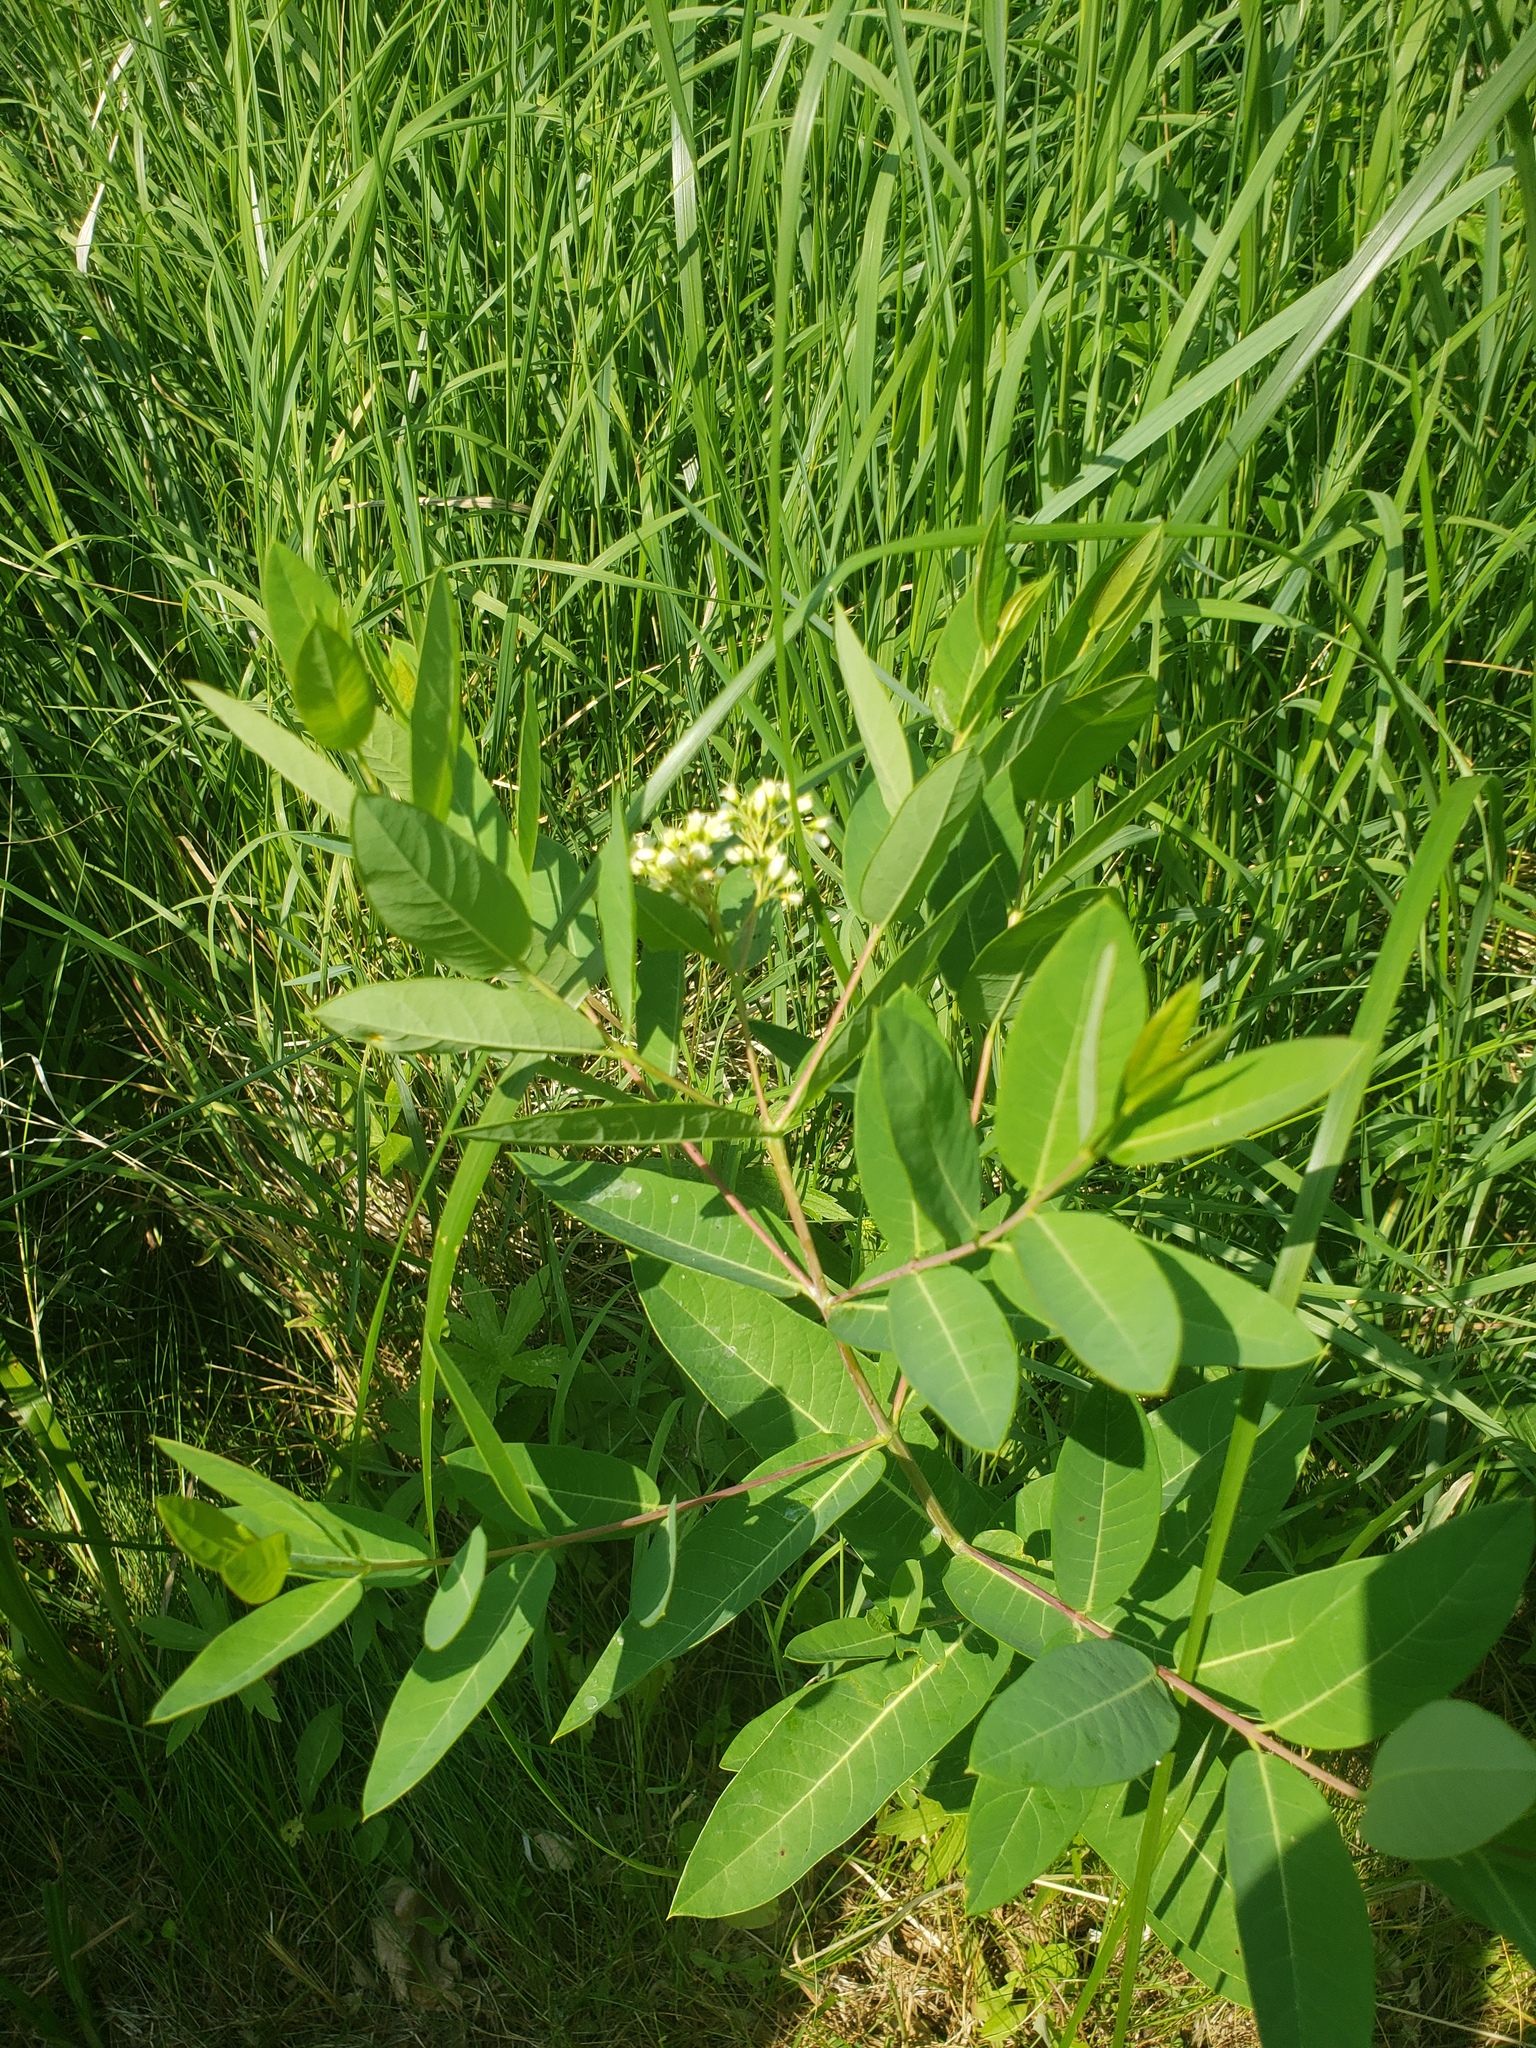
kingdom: Plantae
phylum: Tracheophyta
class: Magnoliopsida
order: Gentianales
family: Apocynaceae
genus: Apocynum
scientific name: Apocynum cannabinum
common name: Hemp dogbane
